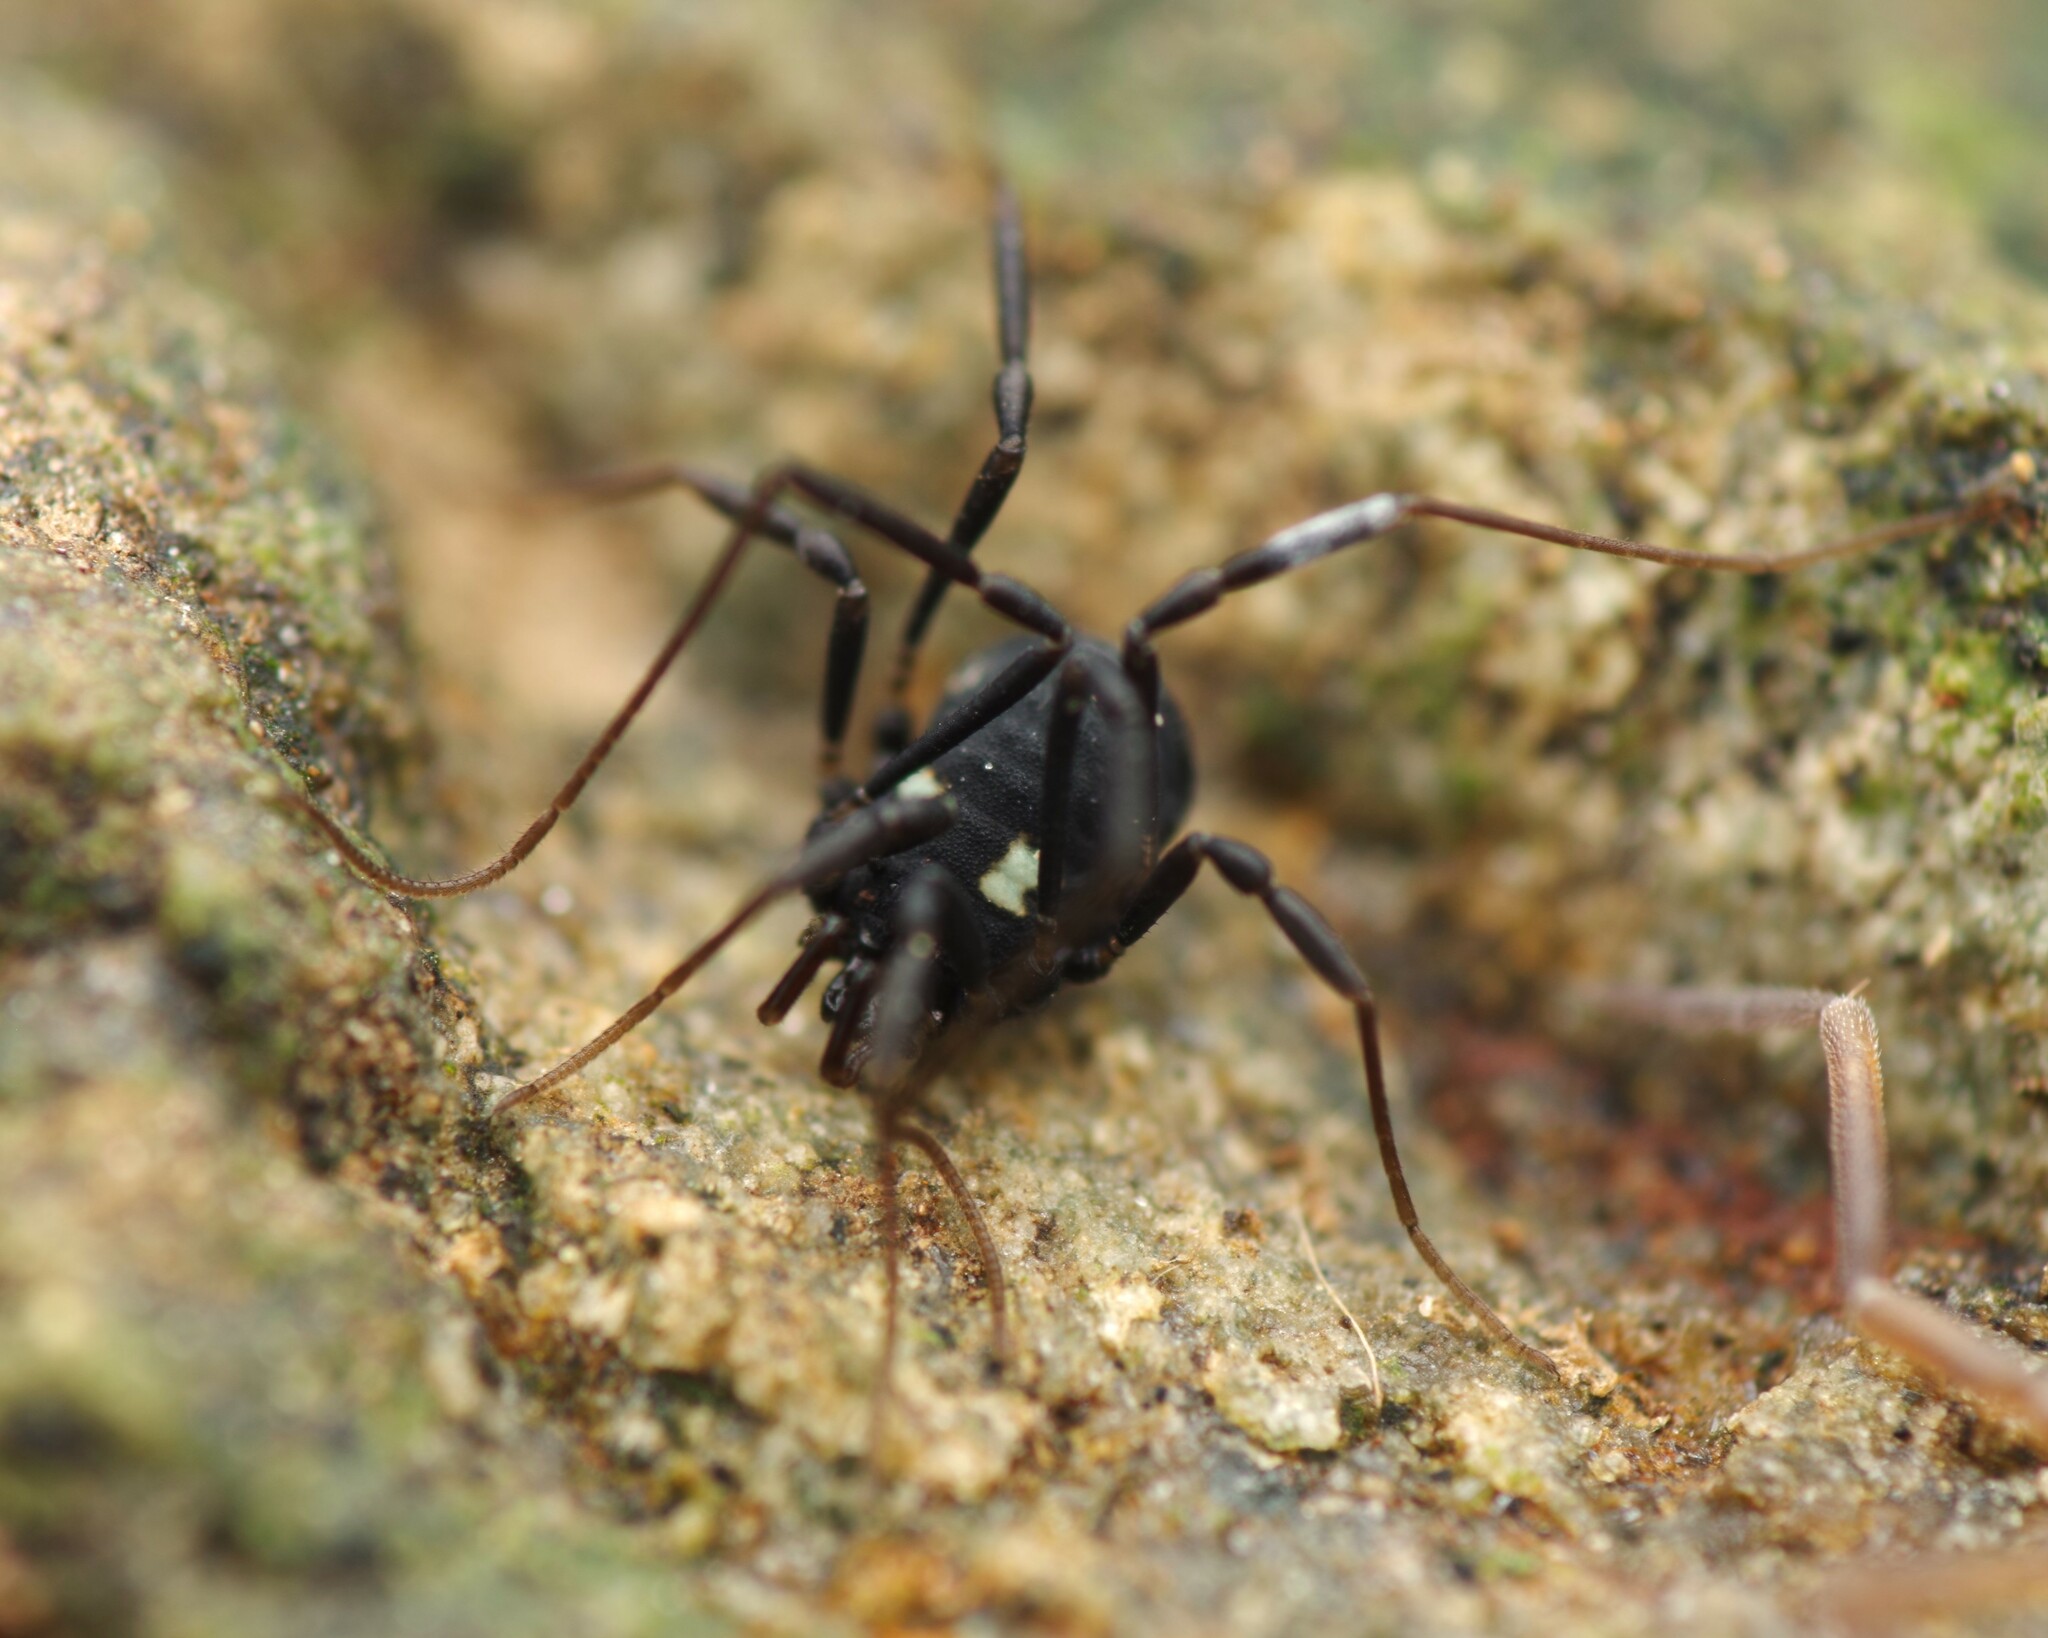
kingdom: Animalia
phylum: Arthropoda
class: Arachnida
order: Opiliones
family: Nemastomatidae
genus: Nemastoma
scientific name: Nemastoma bimaculatum
